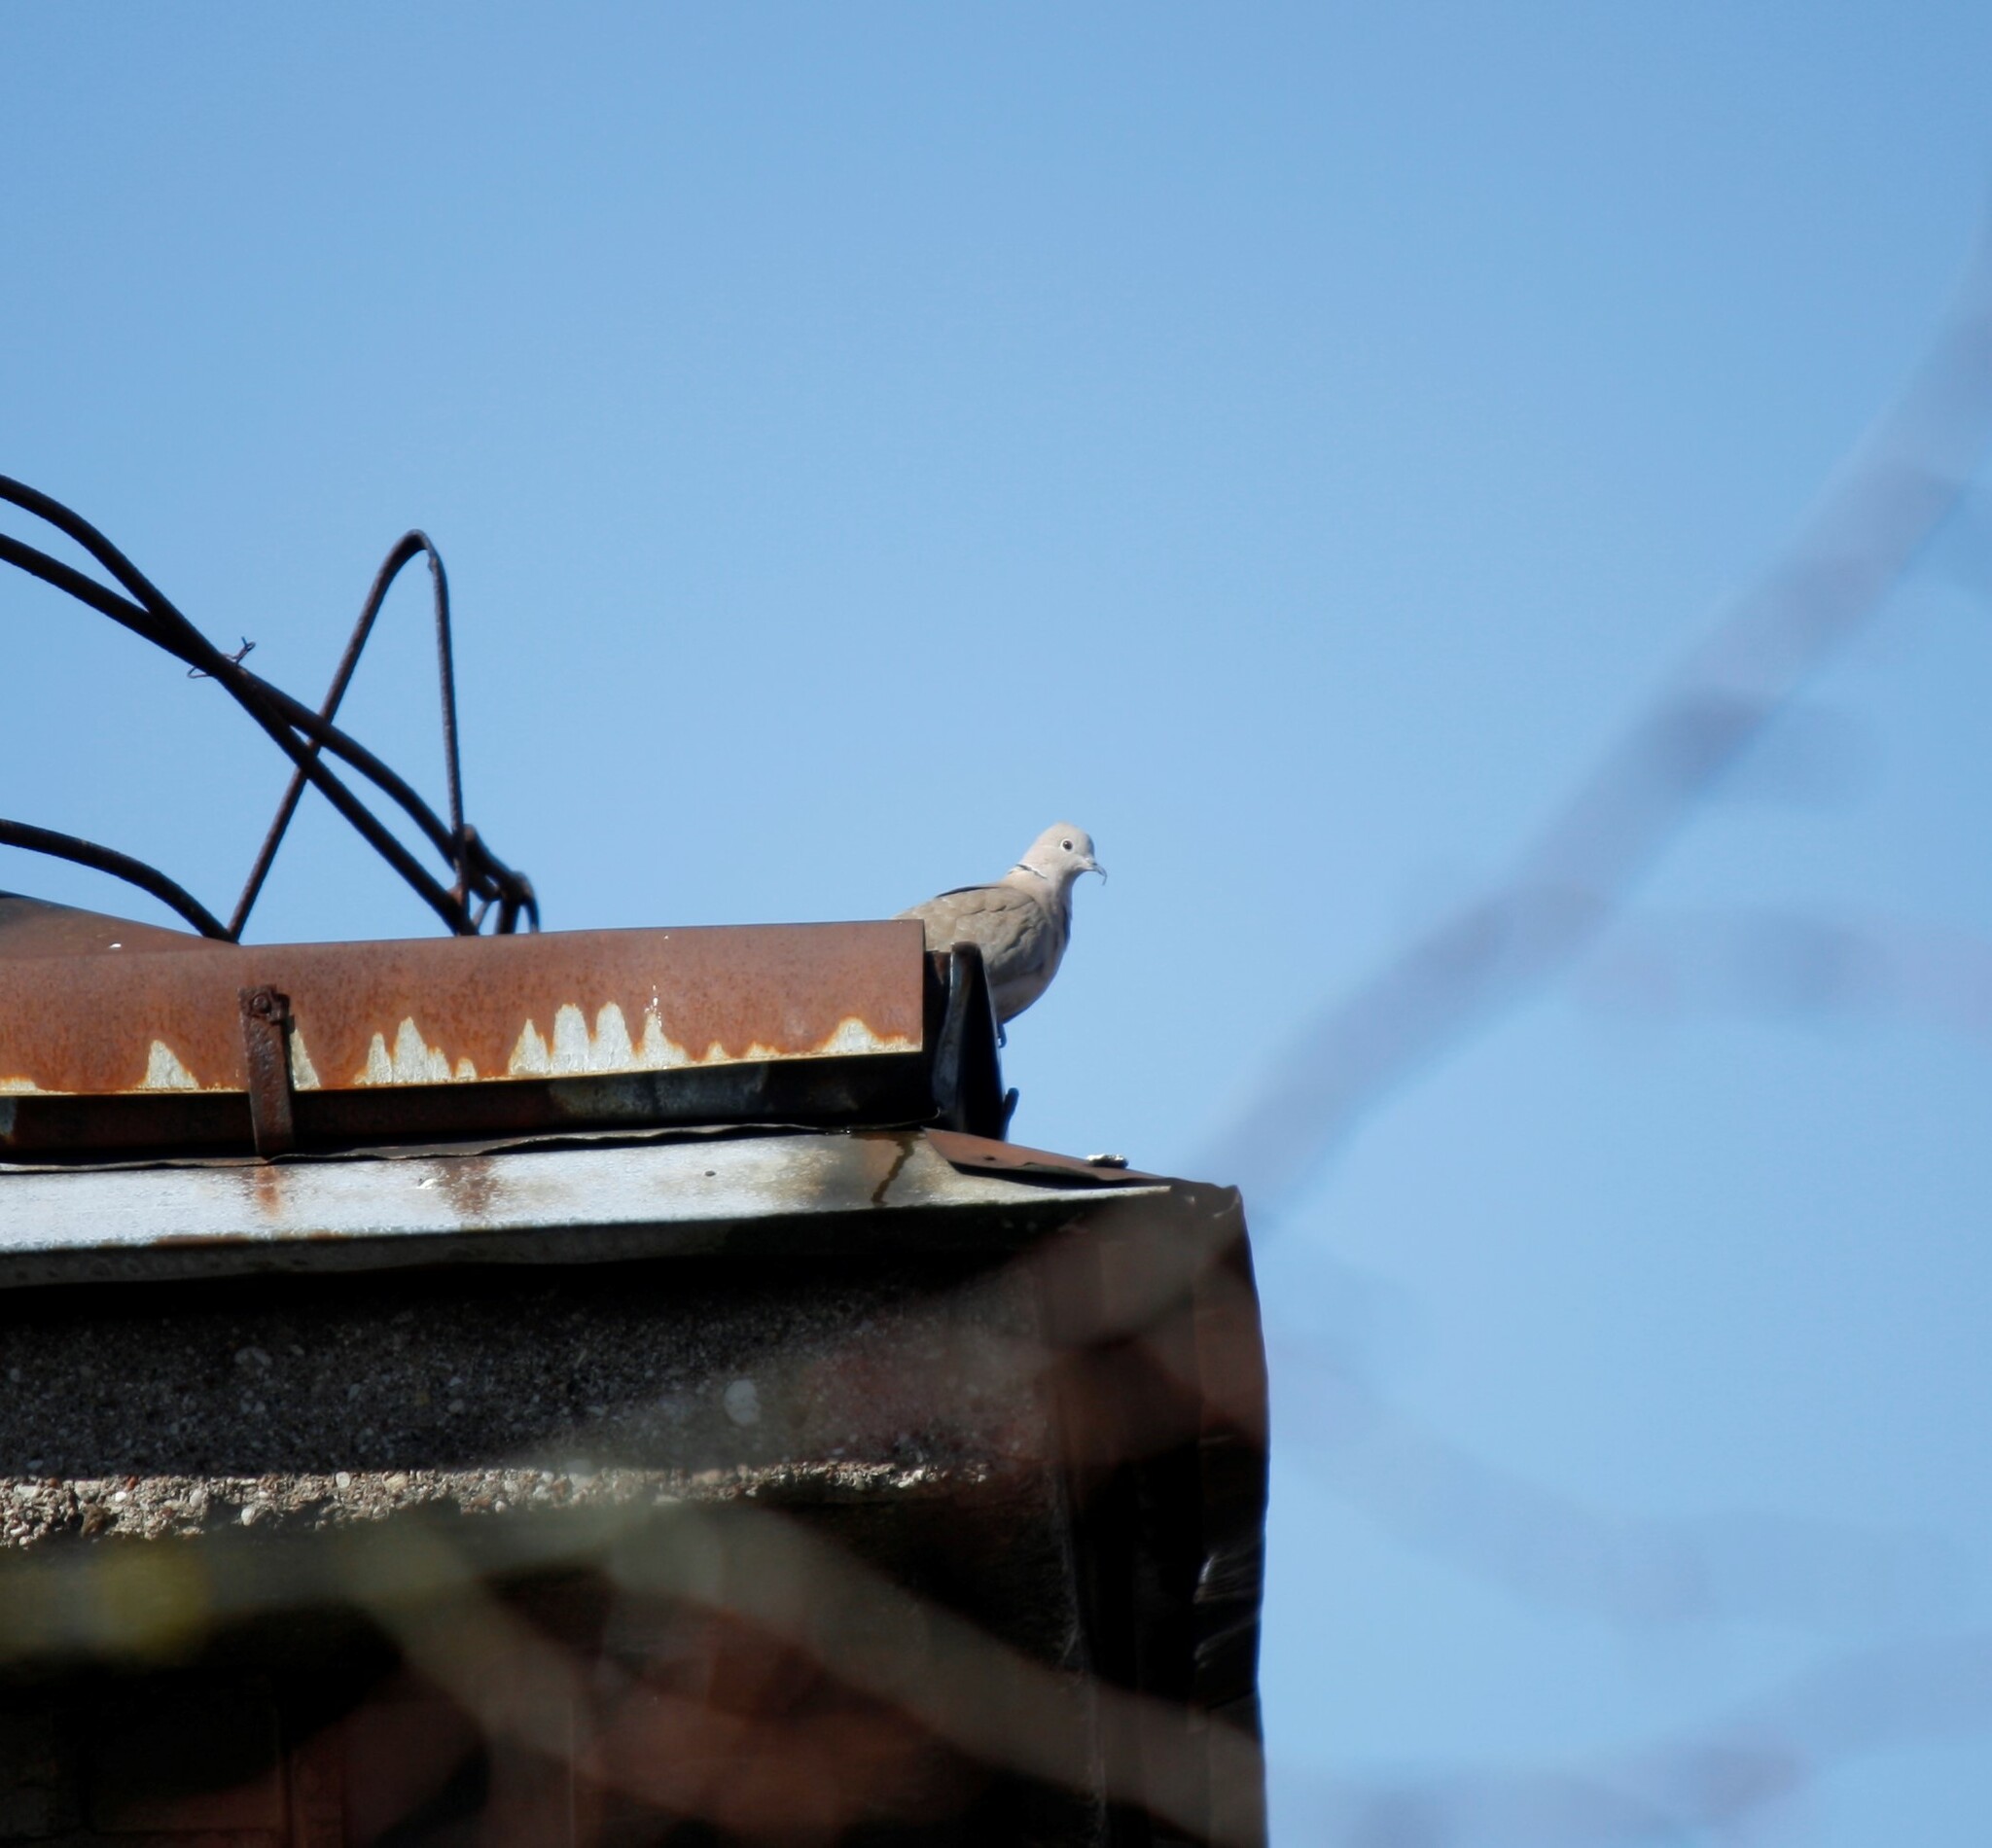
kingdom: Animalia
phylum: Chordata
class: Aves
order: Columbiformes
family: Columbidae
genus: Streptopelia
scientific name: Streptopelia decaocto
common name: Eurasian collared dove
